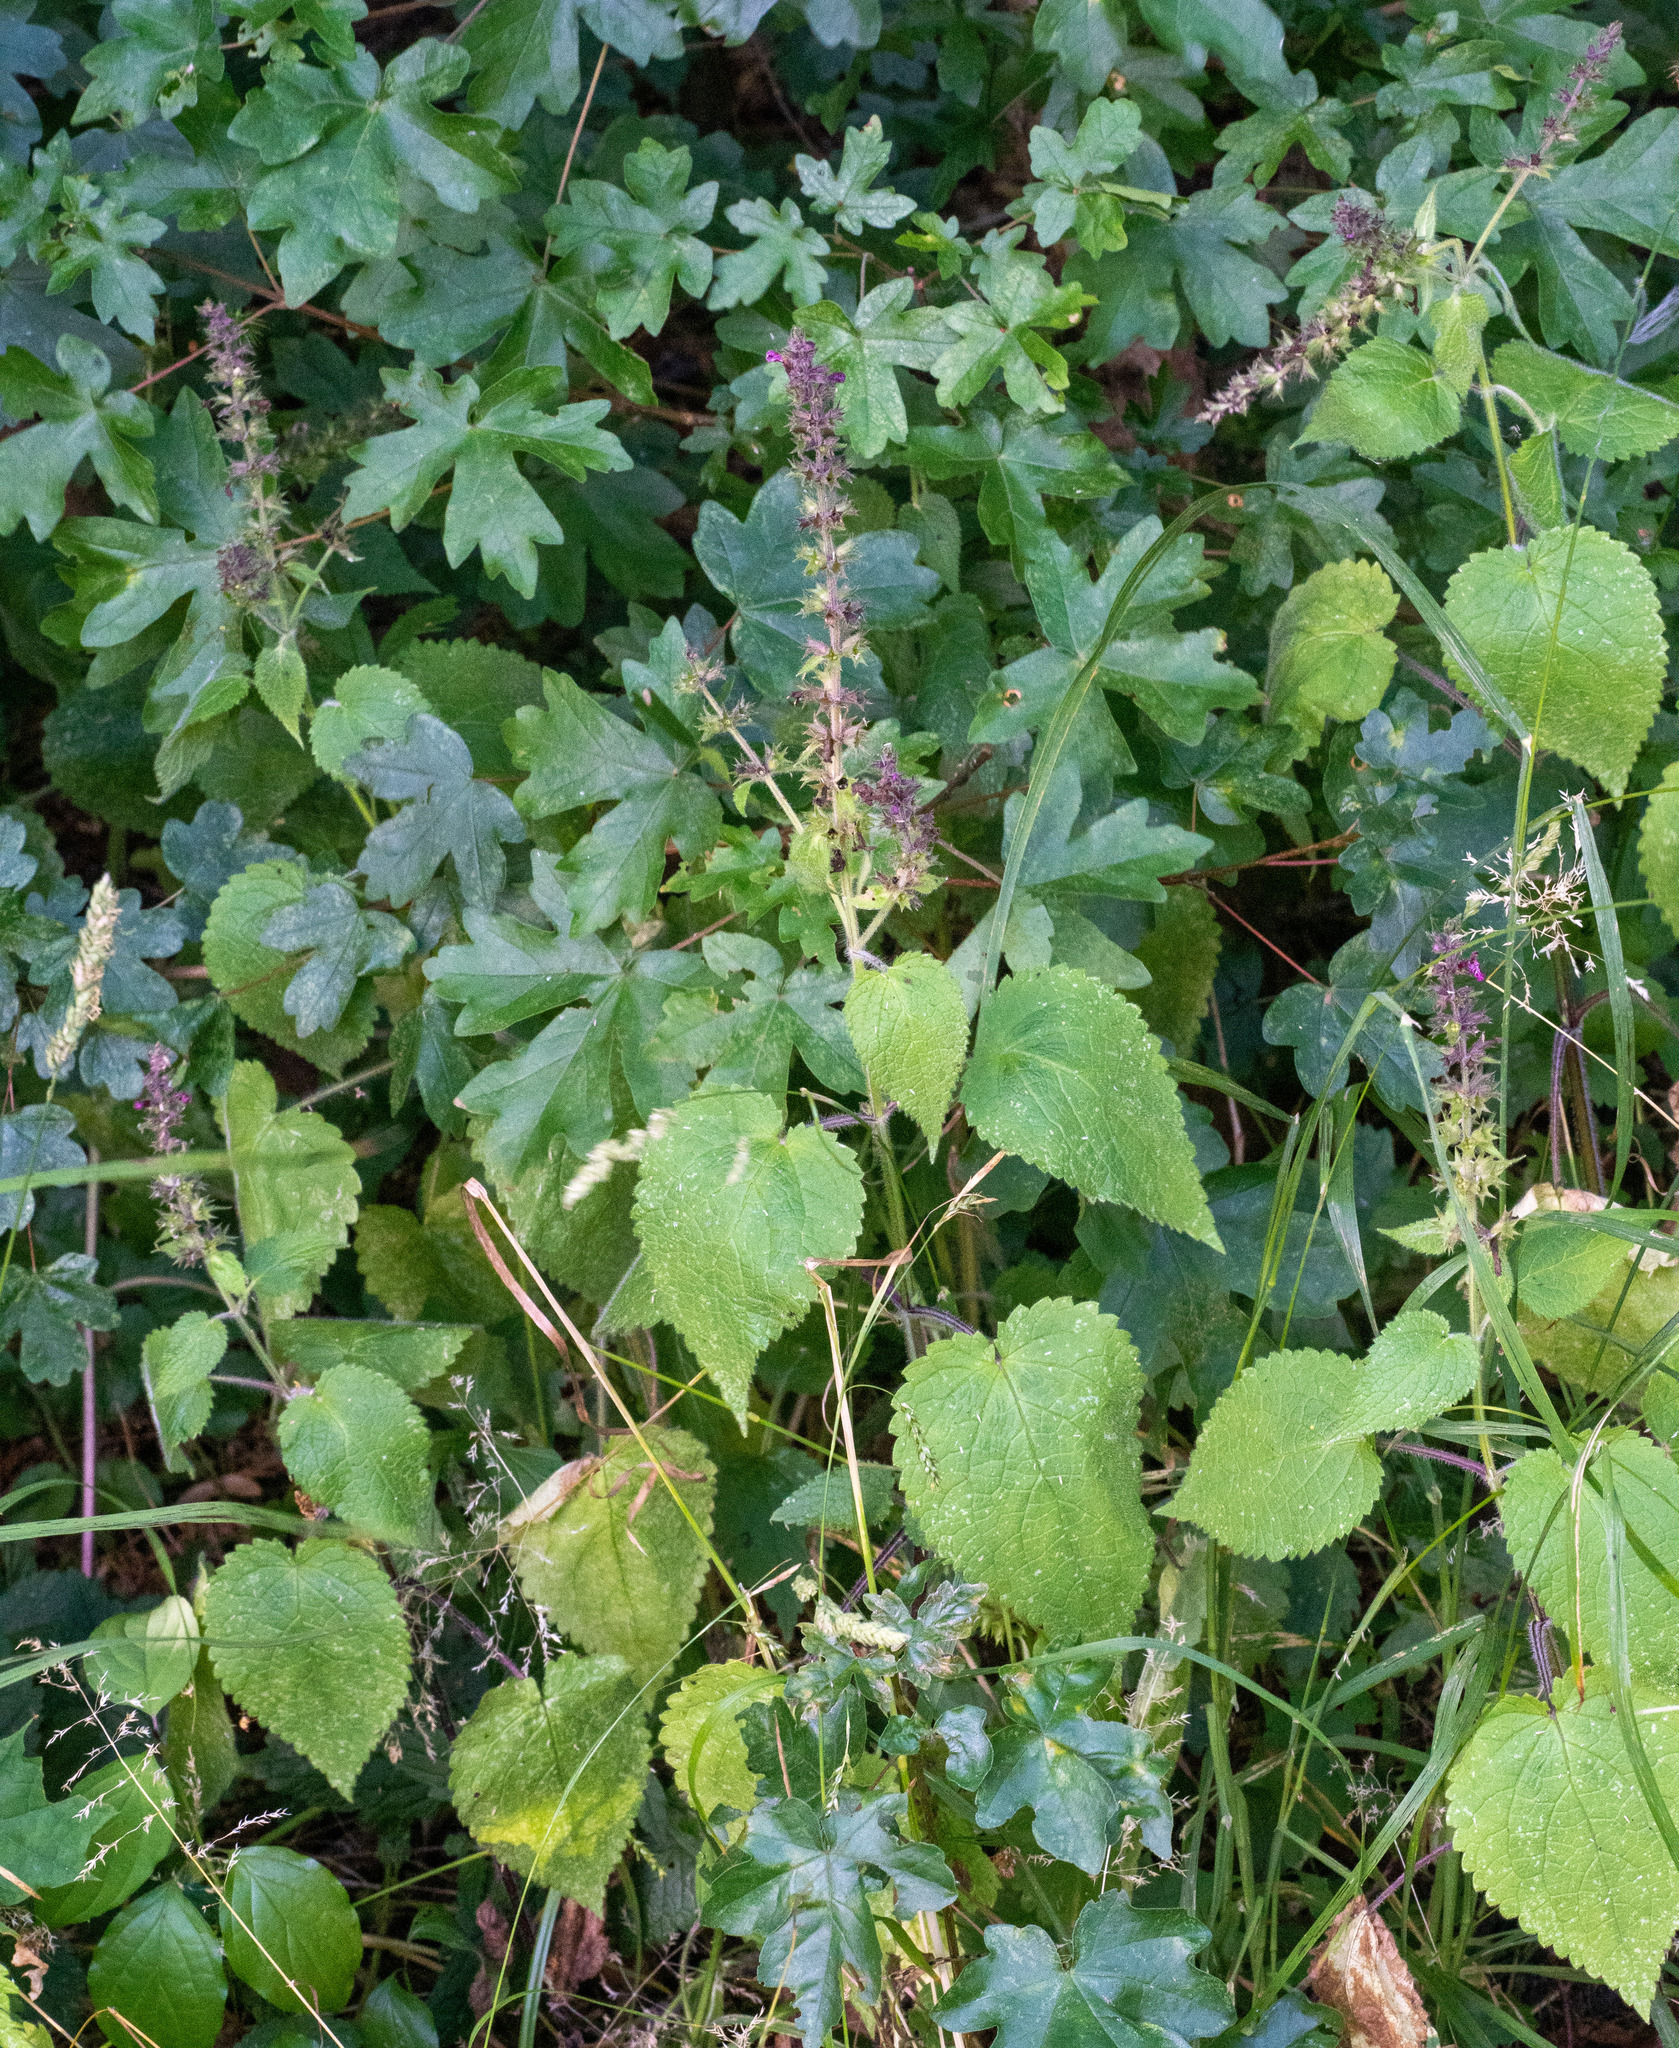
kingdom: Plantae
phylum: Tracheophyta
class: Magnoliopsida
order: Lamiales
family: Lamiaceae
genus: Stachys
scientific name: Stachys sylvatica
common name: Hedge woundwort
